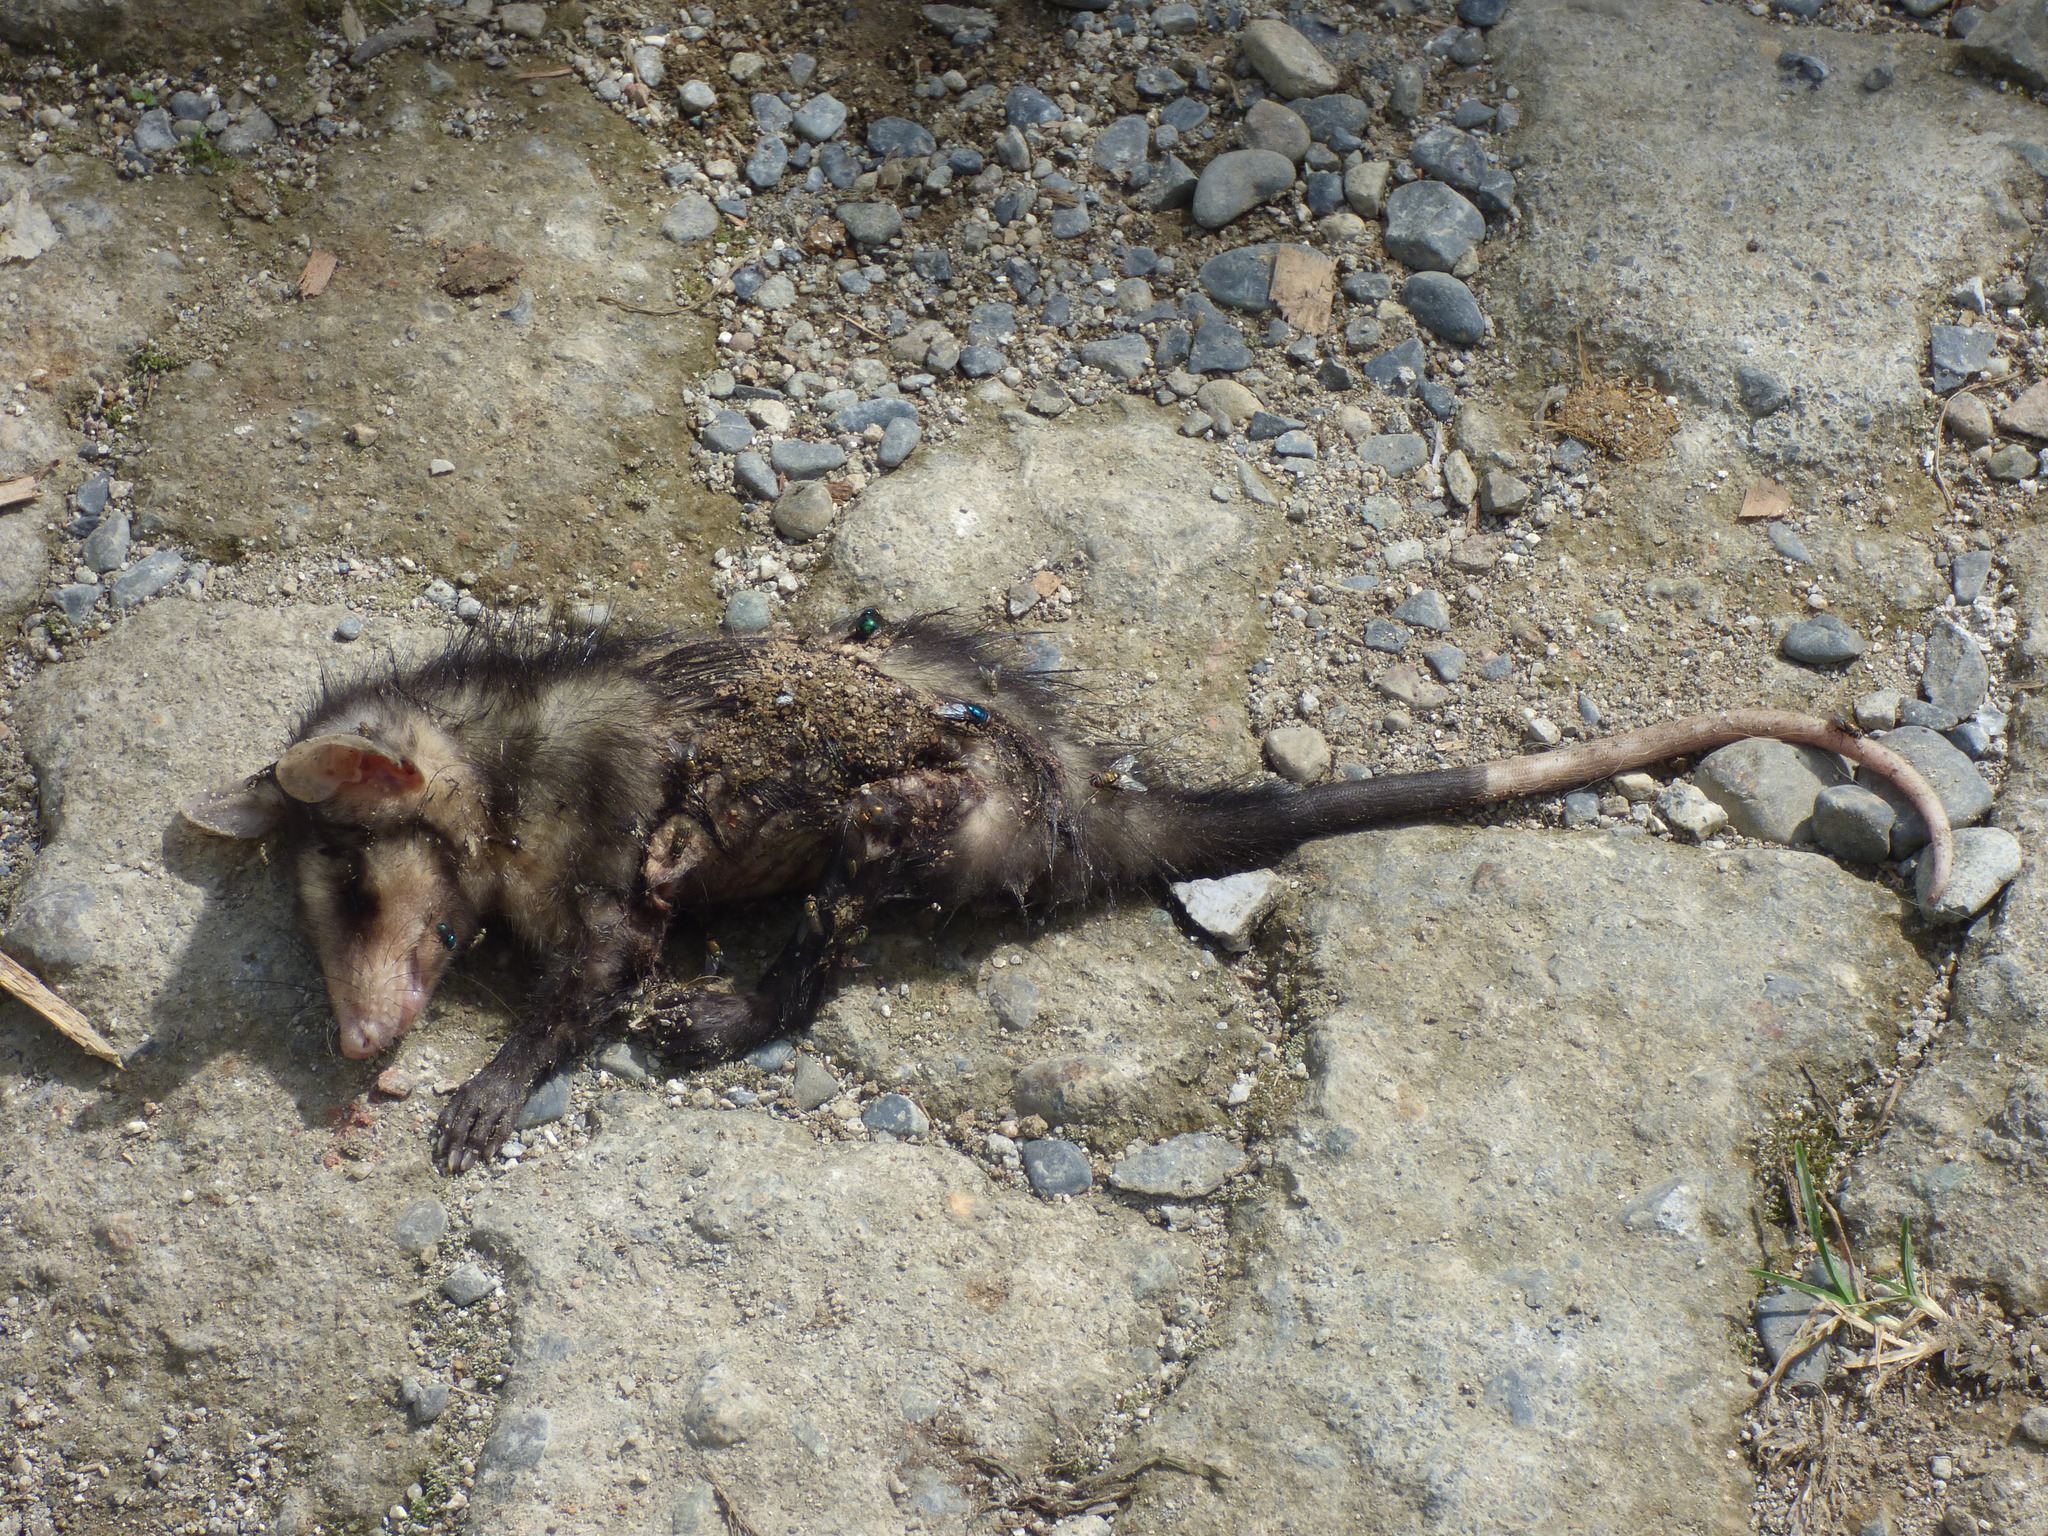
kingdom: Animalia
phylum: Chordata
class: Mammalia
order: Didelphimorphia
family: Didelphidae
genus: Didelphis
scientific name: Didelphis marsupialis
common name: Common opossum
